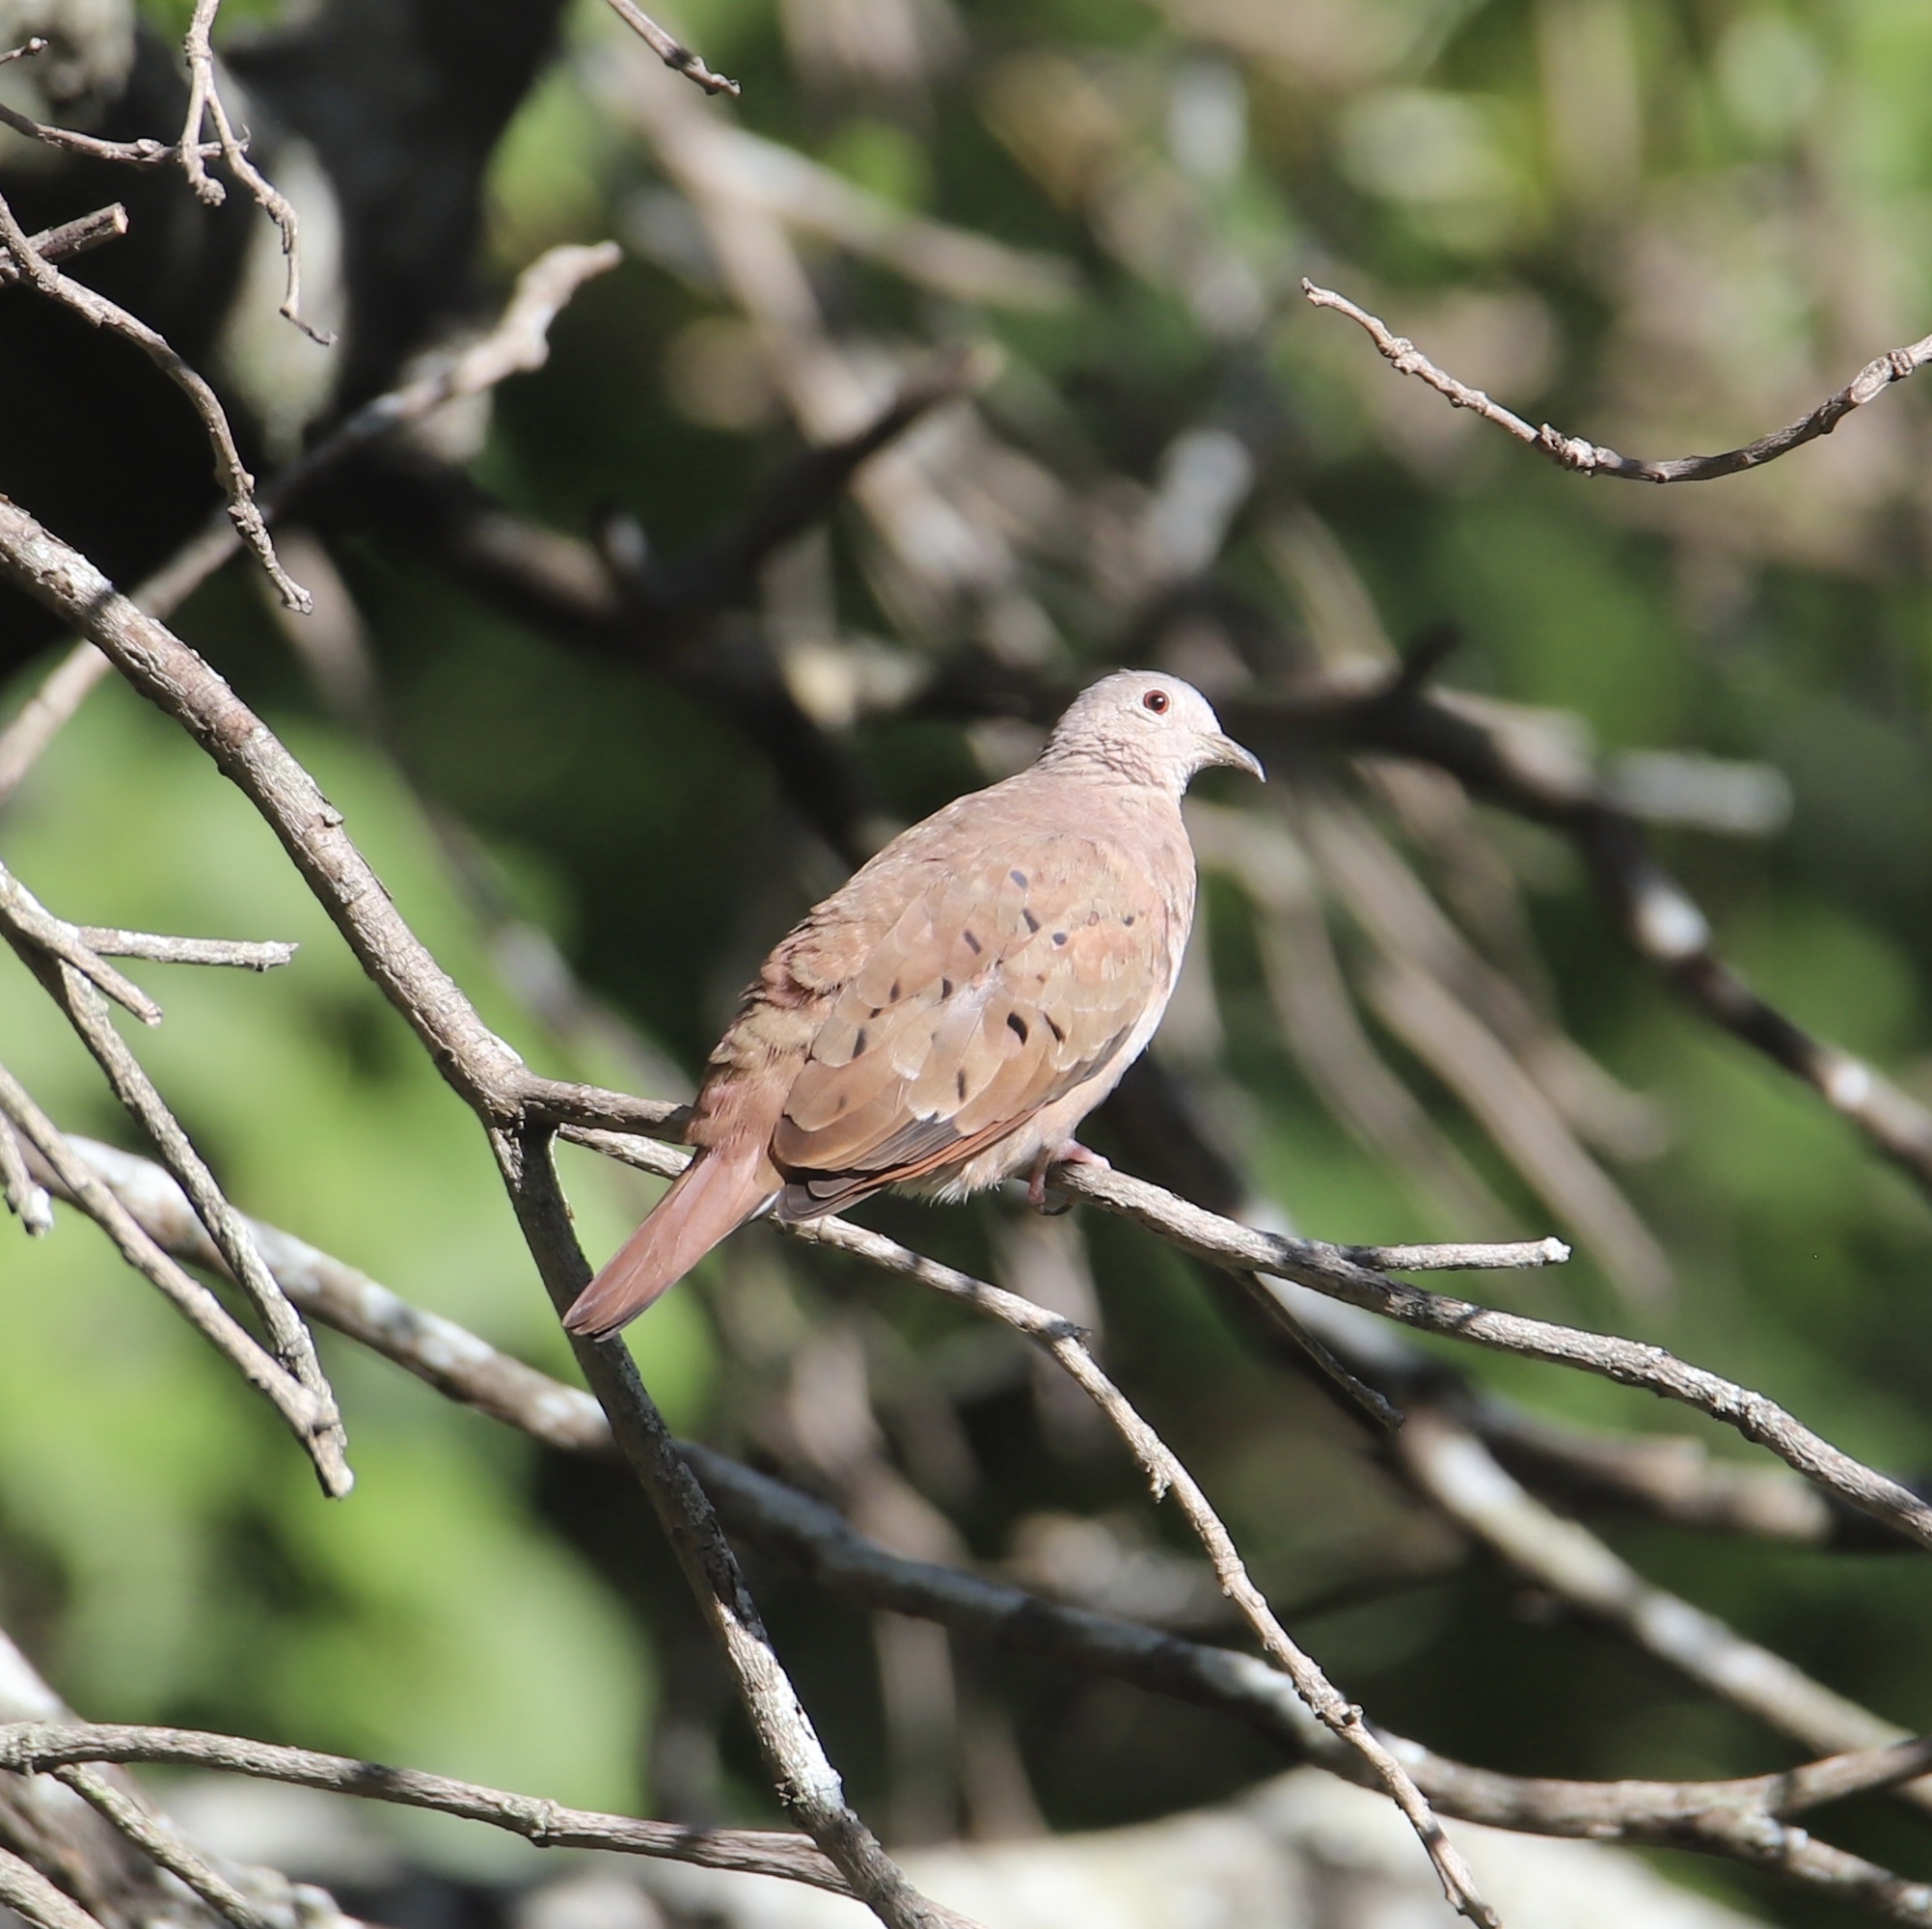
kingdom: Animalia
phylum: Chordata
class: Aves
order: Columbiformes
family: Columbidae
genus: Columbina
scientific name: Columbina talpacoti
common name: Ruddy ground dove
